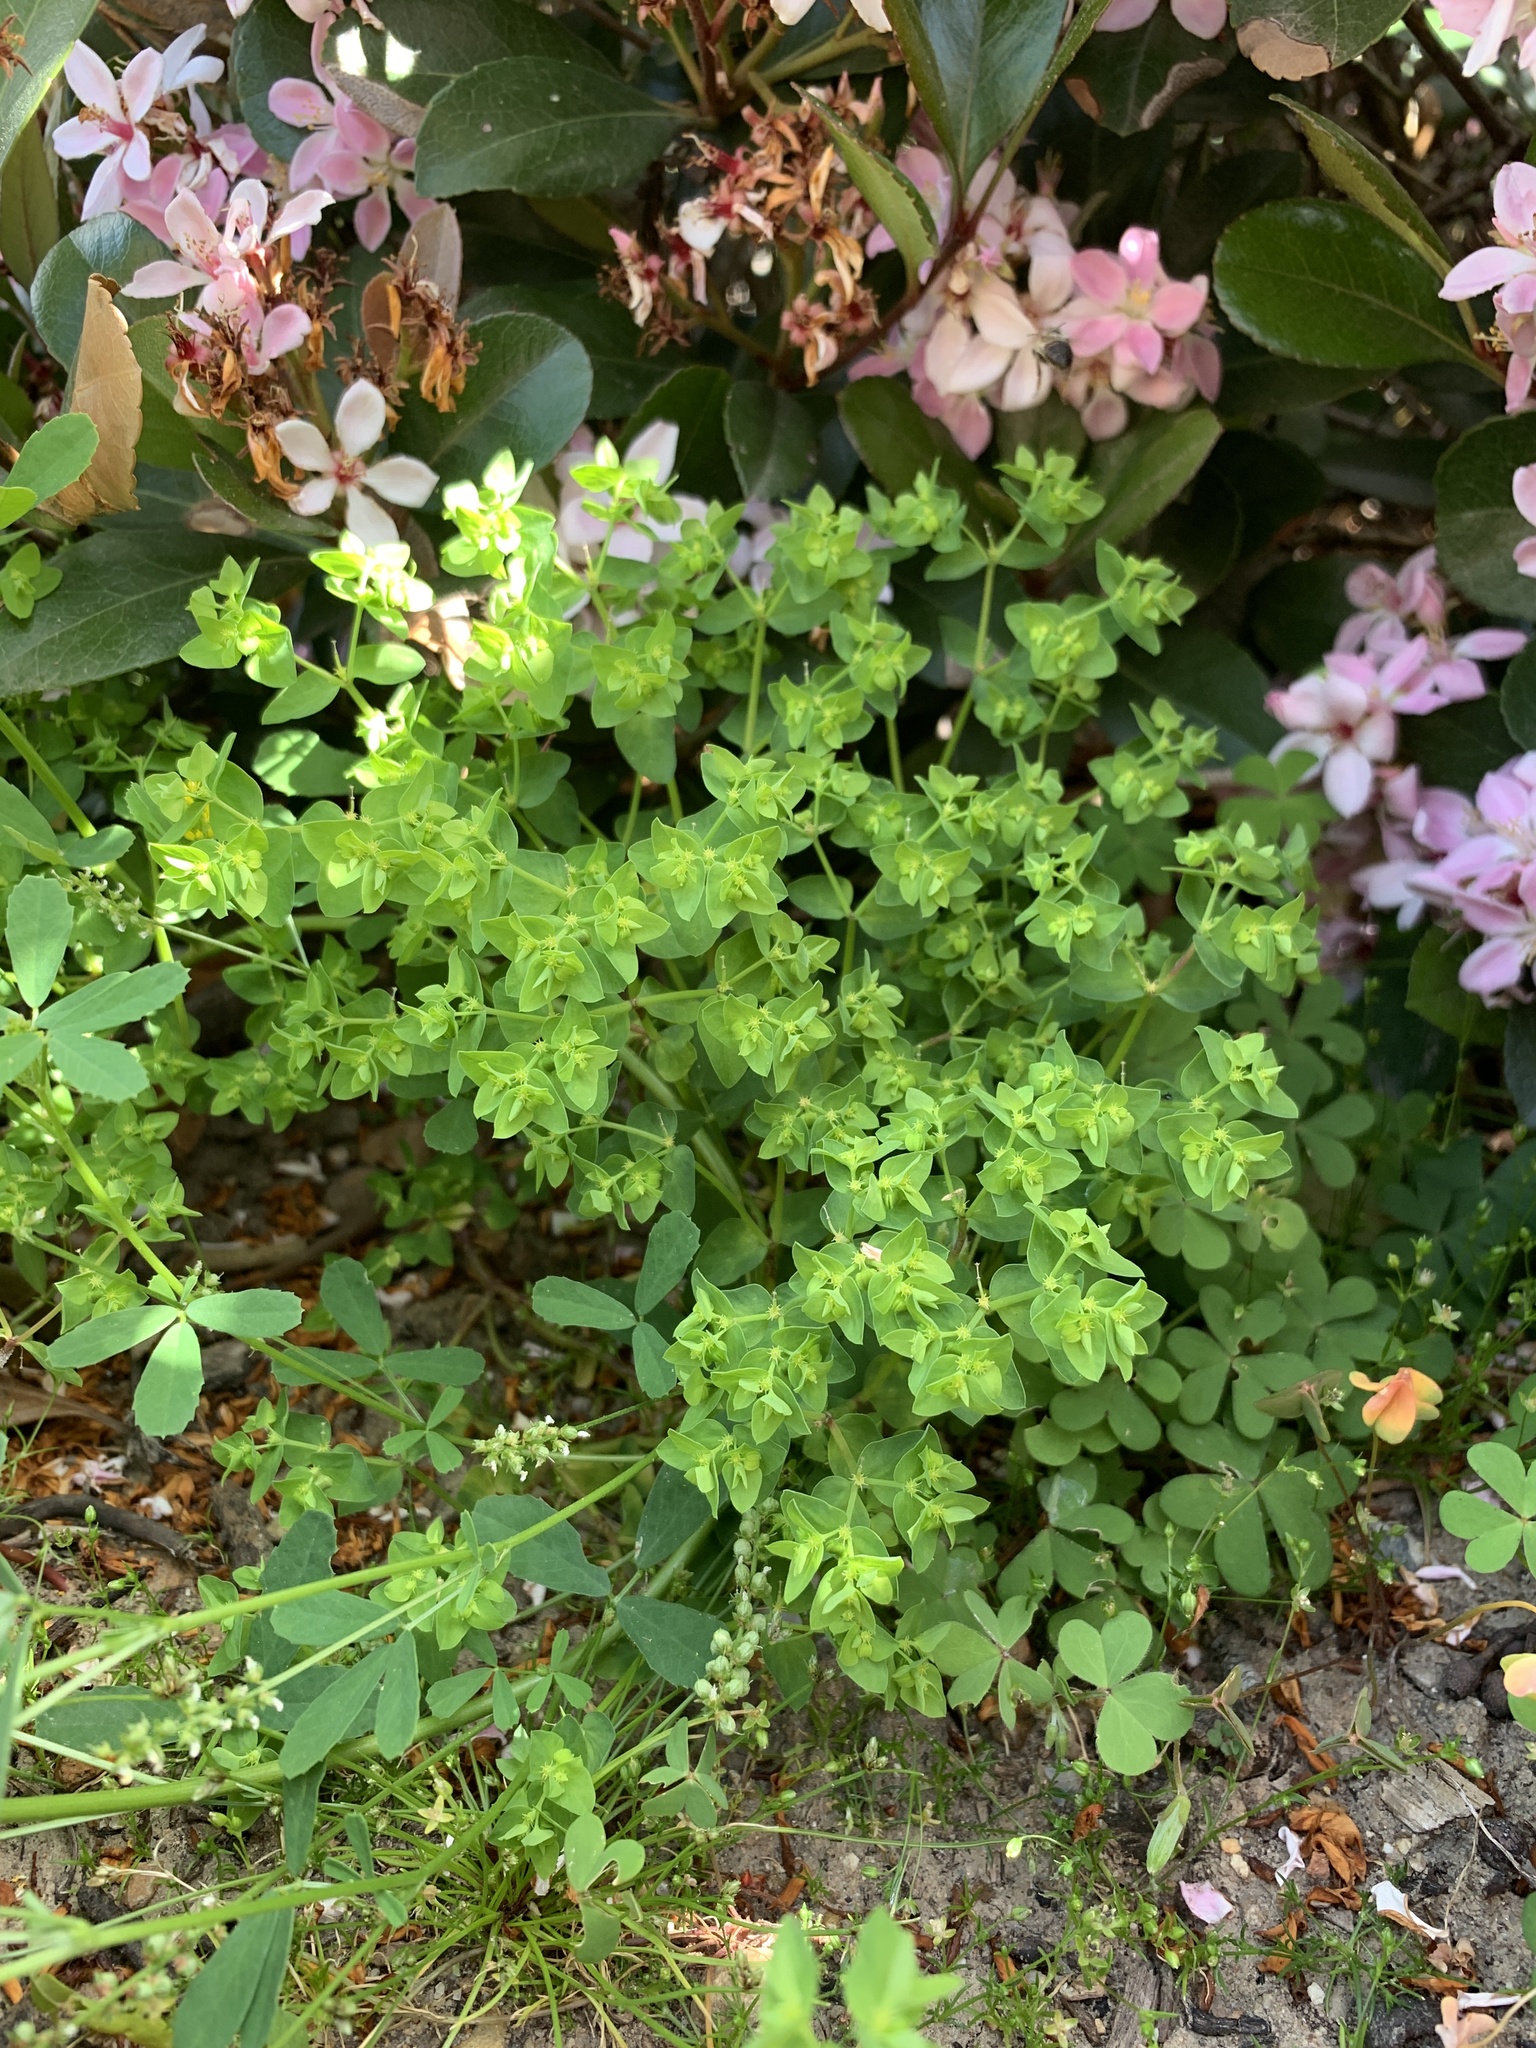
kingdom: Plantae
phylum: Tracheophyta
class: Magnoliopsida
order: Malpighiales
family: Euphorbiaceae
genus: Euphorbia
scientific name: Euphorbia peplus
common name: Petty spurge
